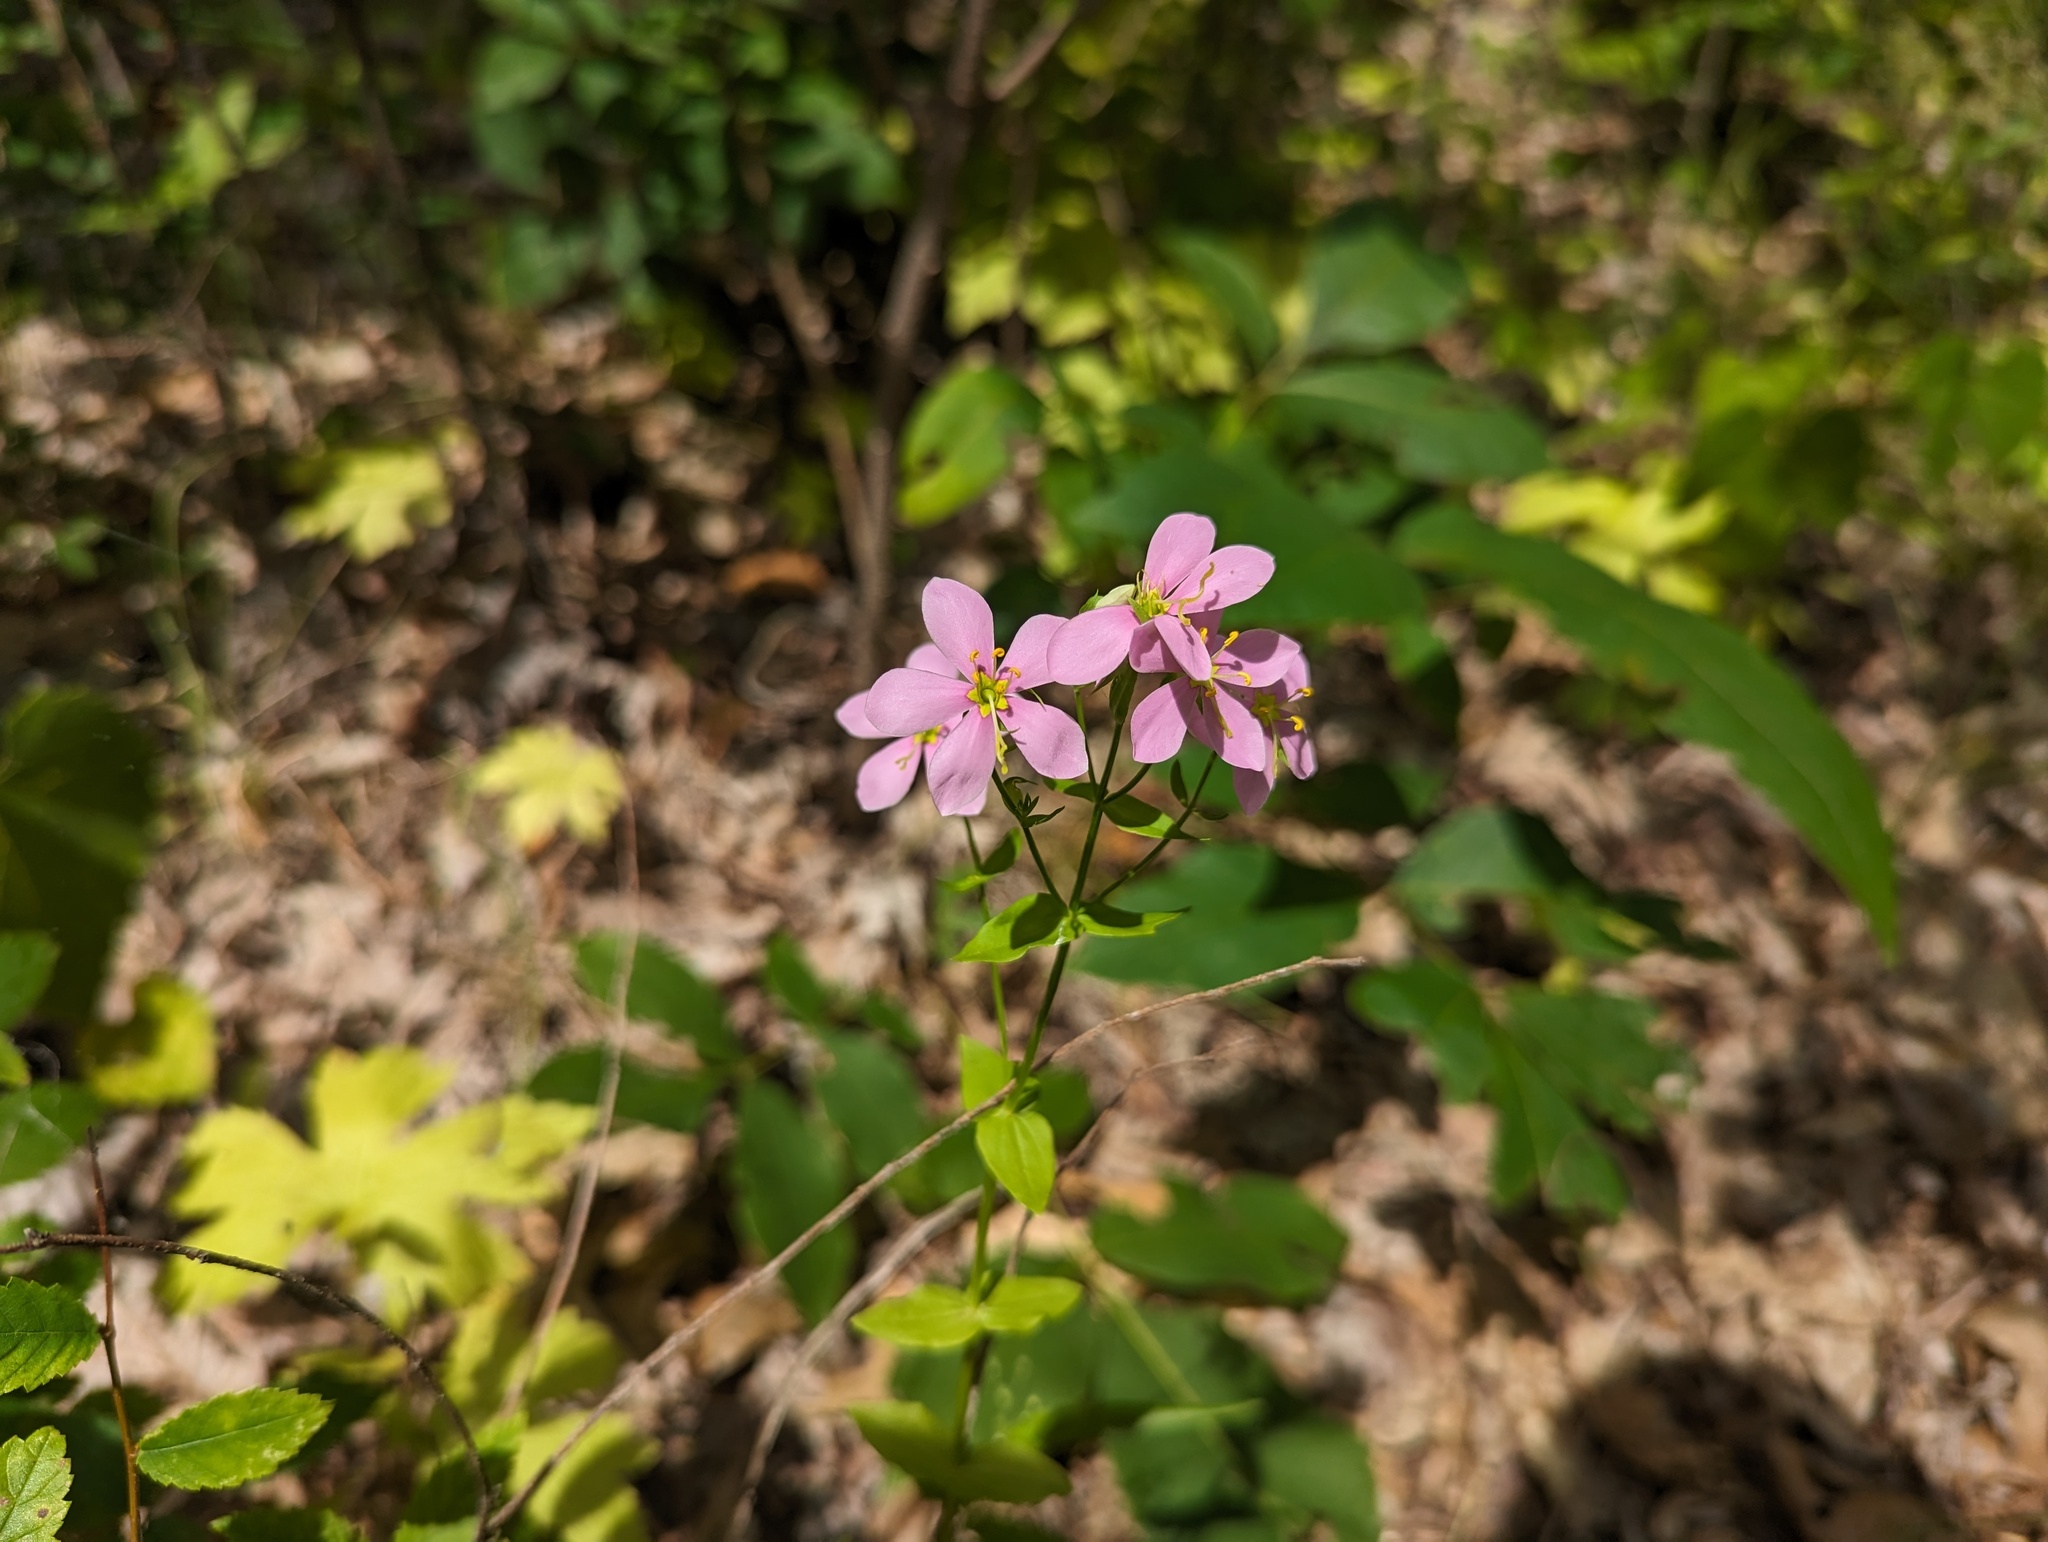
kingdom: Plantae
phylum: Tracheophyta
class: Magnoliopsida
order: Gentianales
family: Gentianaceae
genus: Sabatia
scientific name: Sabatia angularis
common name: Rose-pink
